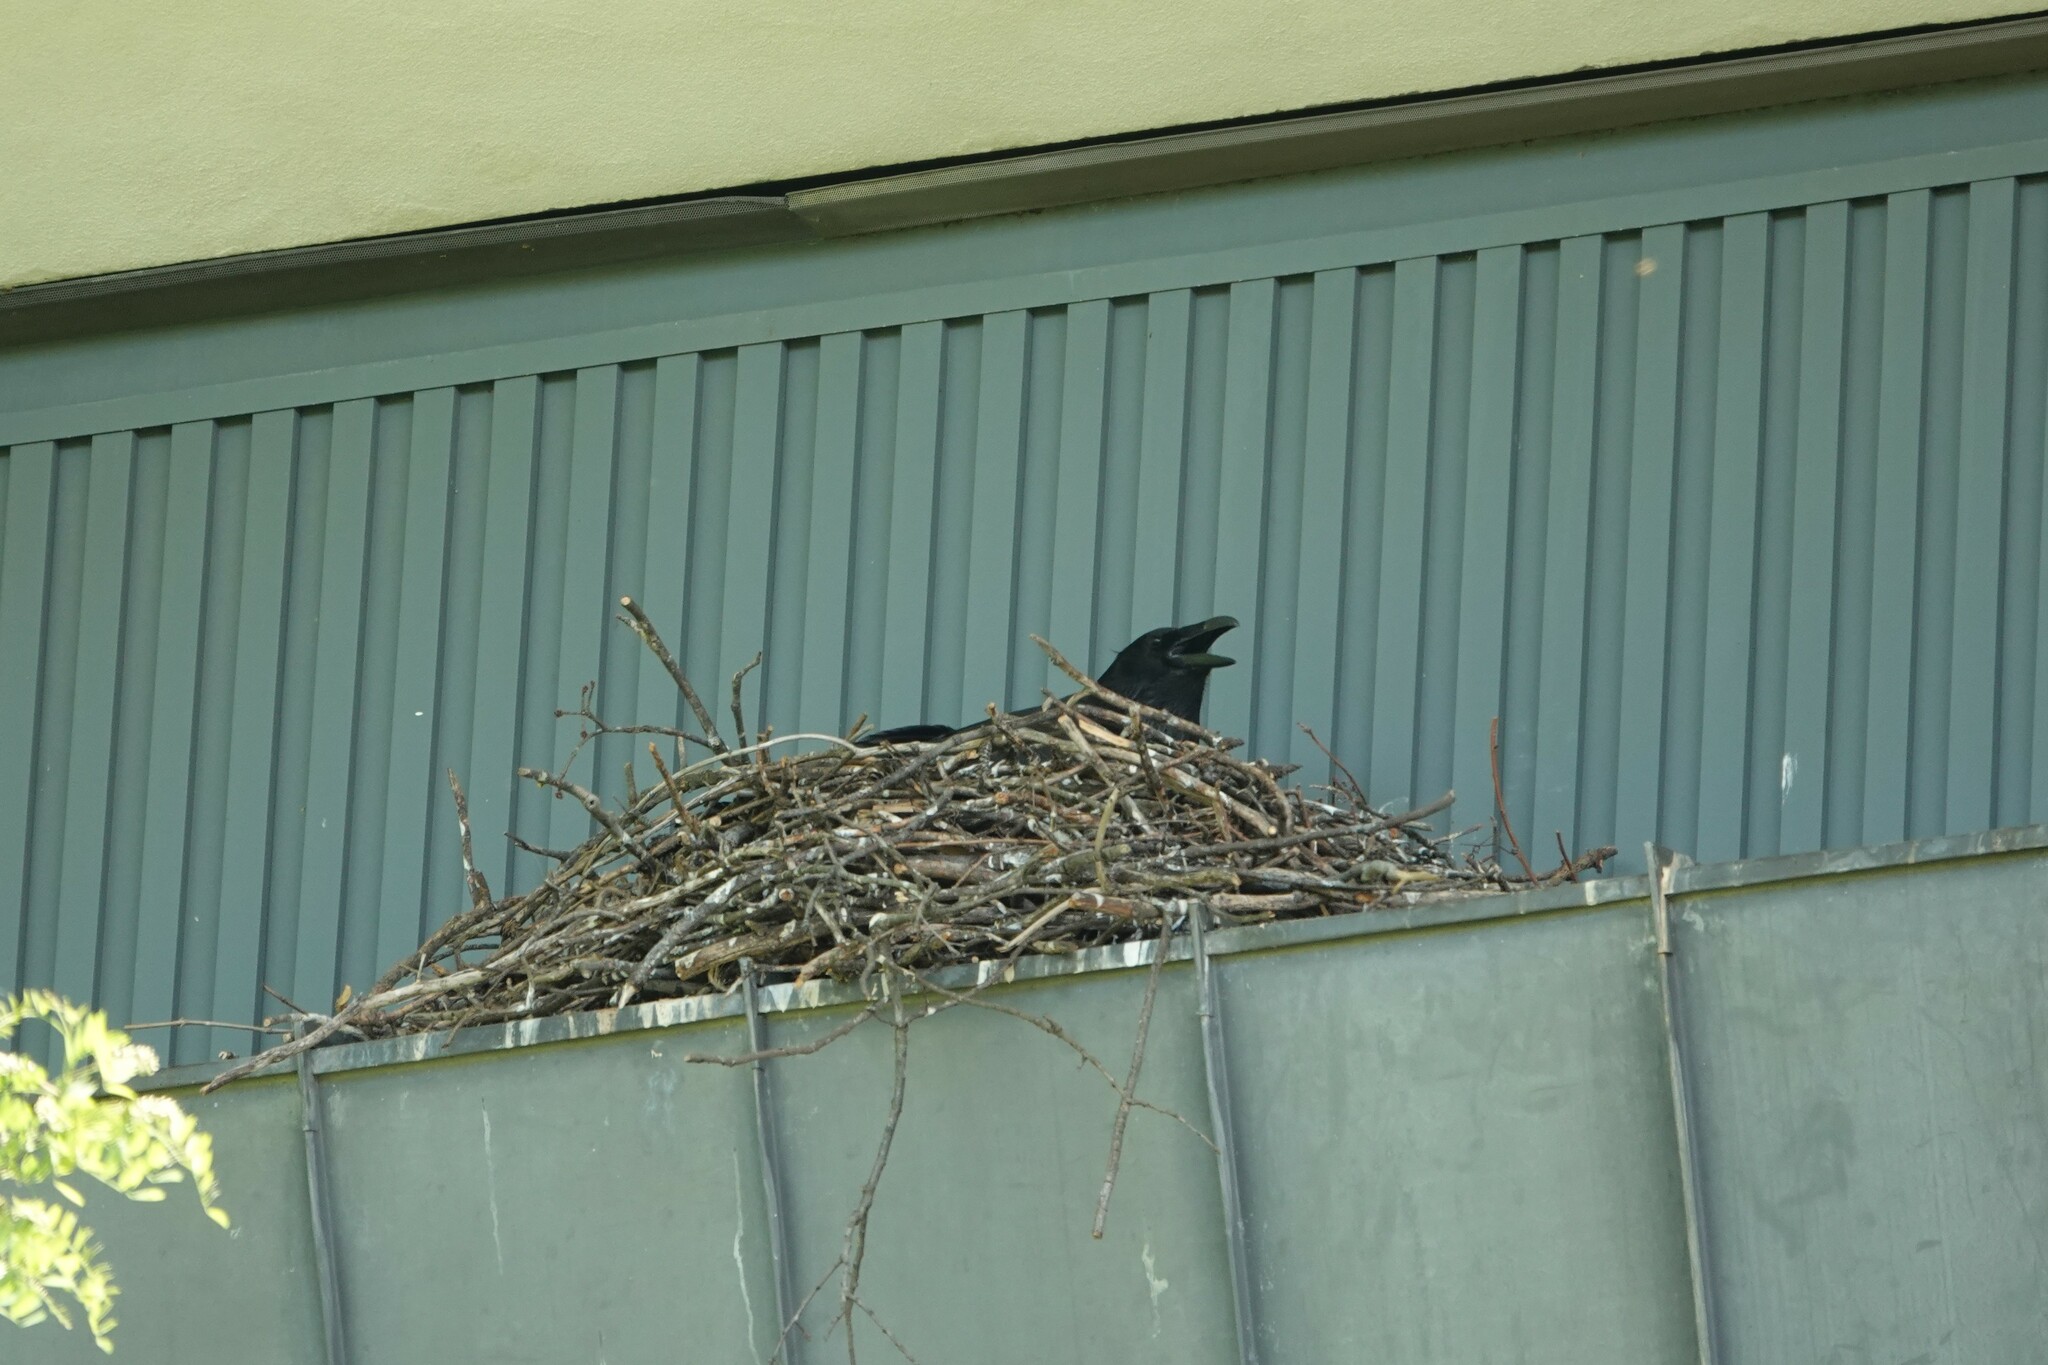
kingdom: Animalia
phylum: Chordata
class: Aves
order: Passeriformes
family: Corvidae
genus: Corvus
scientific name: Corvus corax
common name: Common raven
